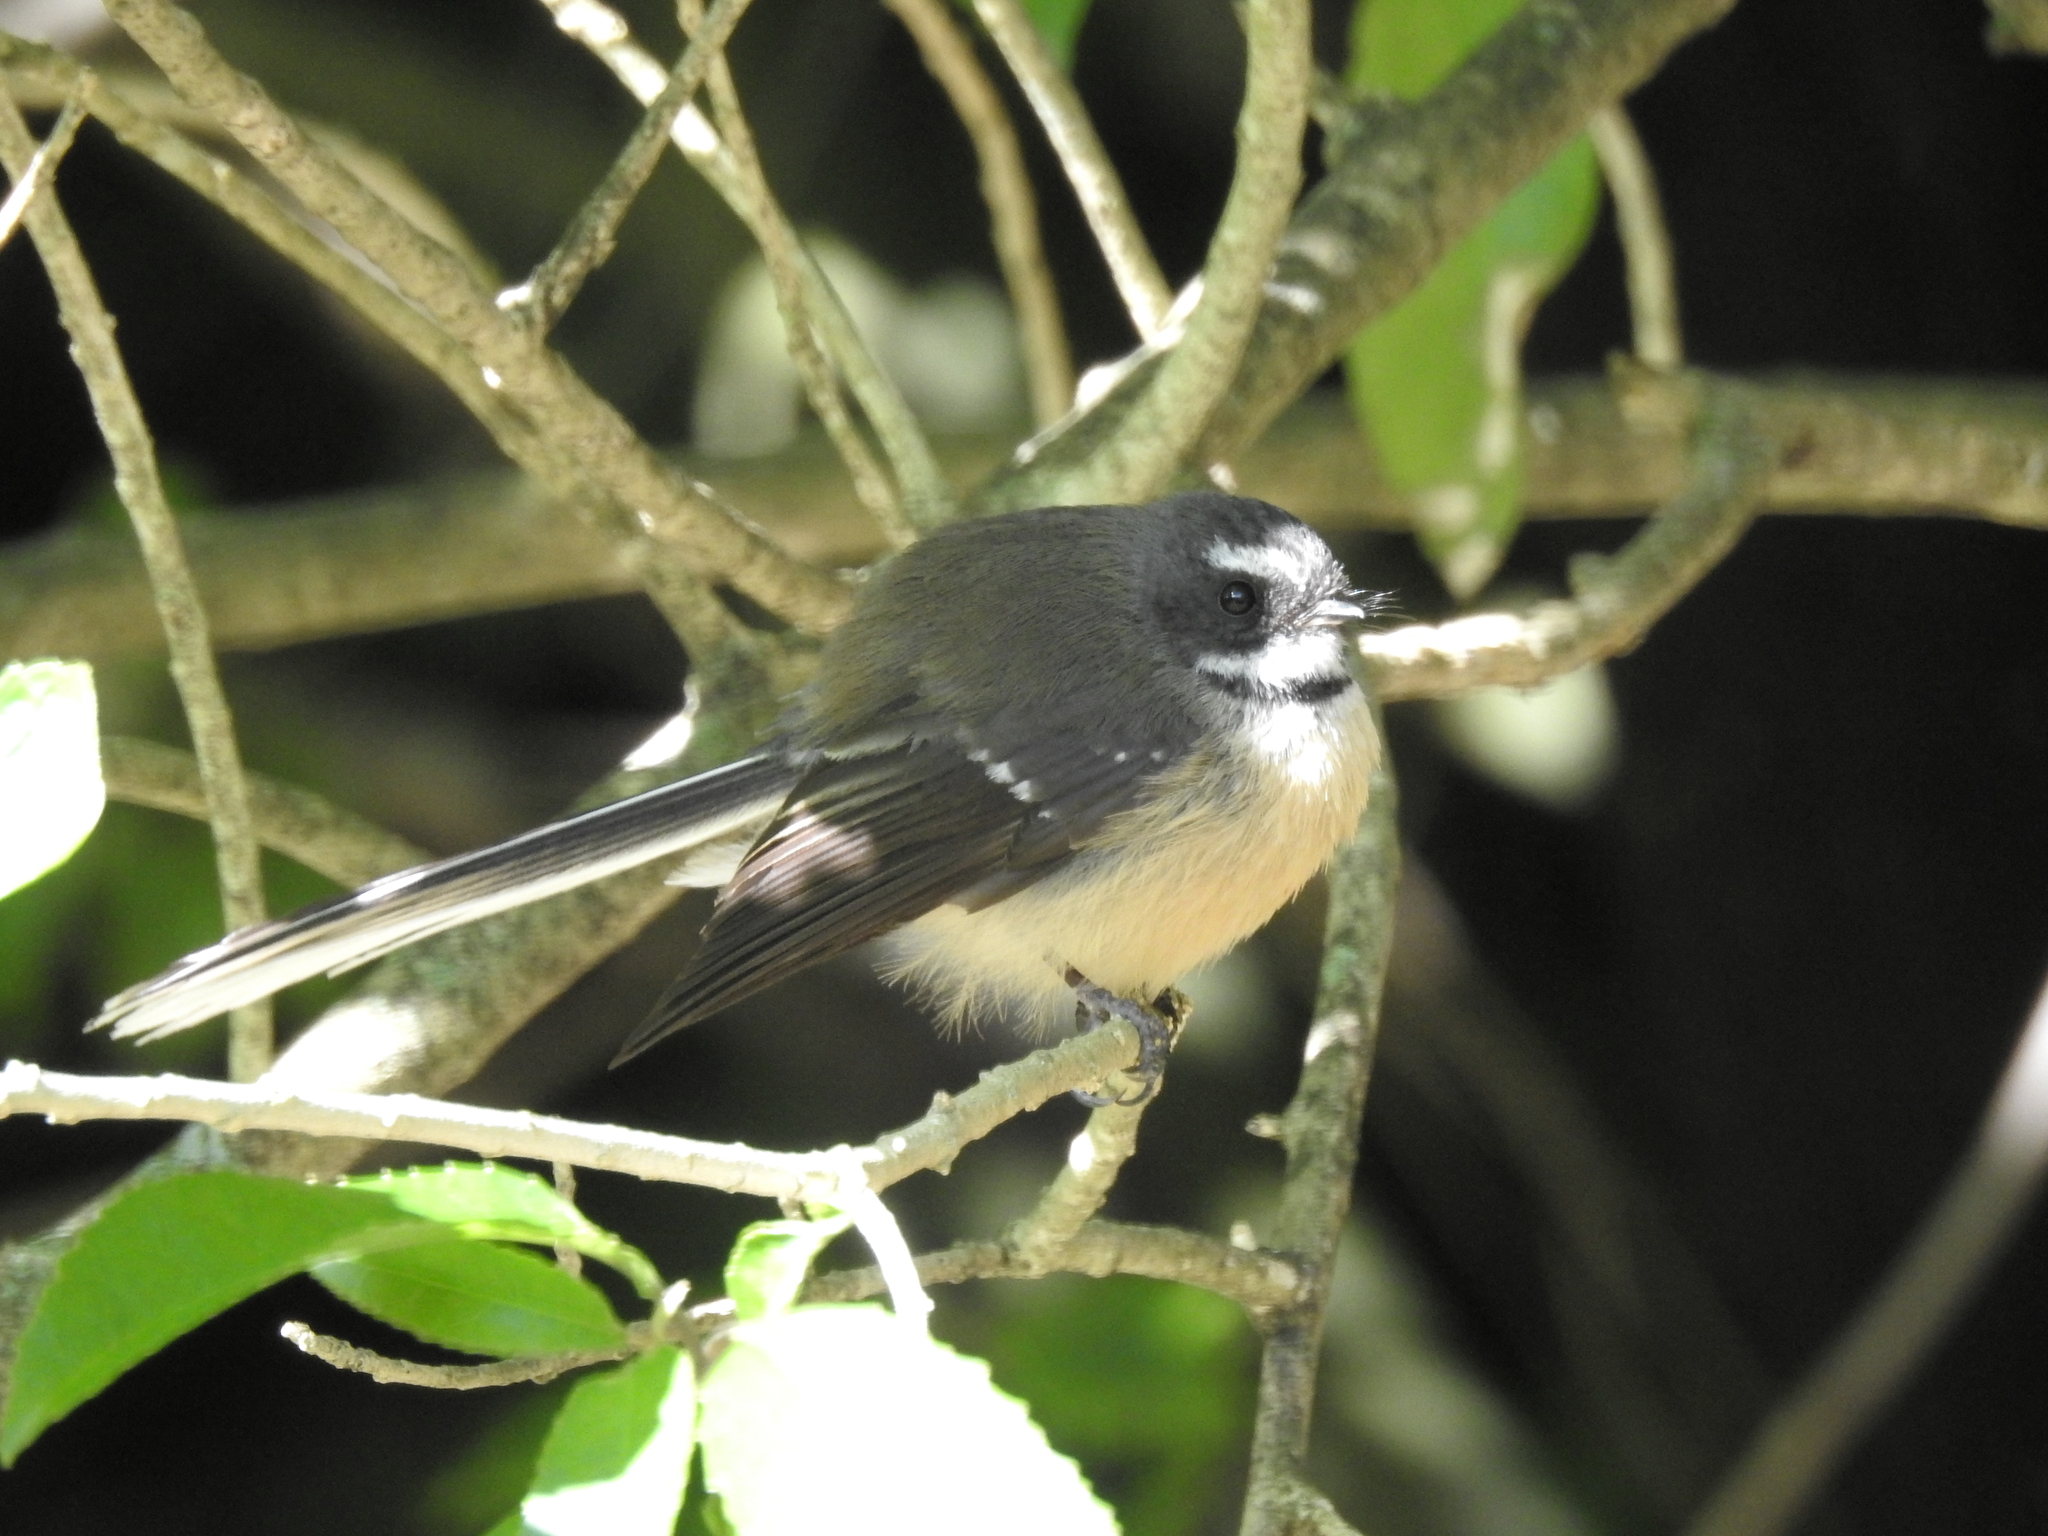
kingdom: Animalia
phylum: Chordata
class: Aves
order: Passeriformes
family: Rhipiduridae
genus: Rhipidura
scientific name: Rhipidura fuliginosa
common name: New zealand fantail
